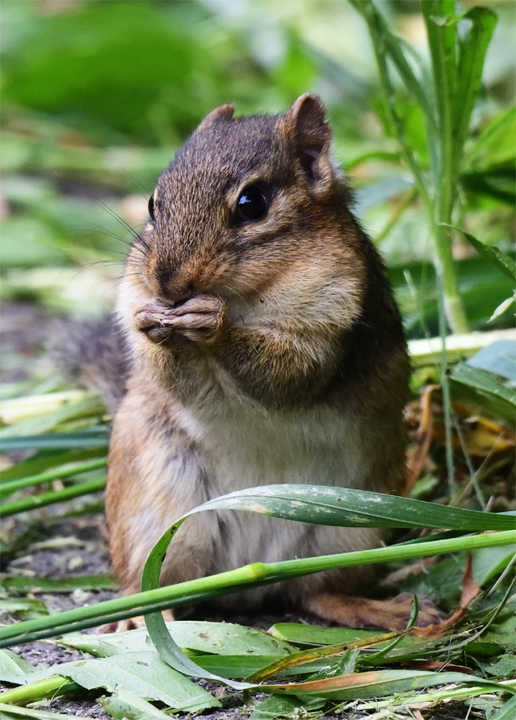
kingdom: Animalia
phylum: Chordata
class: Mammalia
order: Rodentia
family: Sciuridae
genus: Tamias
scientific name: Tamias striatus
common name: Eastern chipmunk
